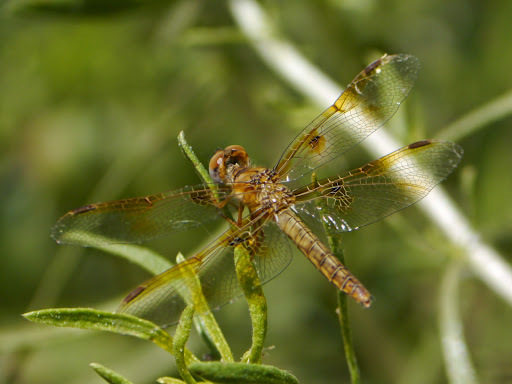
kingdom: Animalia
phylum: Arthropoda
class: Insecta
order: Odonata
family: Libellulidae
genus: Perithemis
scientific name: Perithemis intensa
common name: Mexican amberwing
